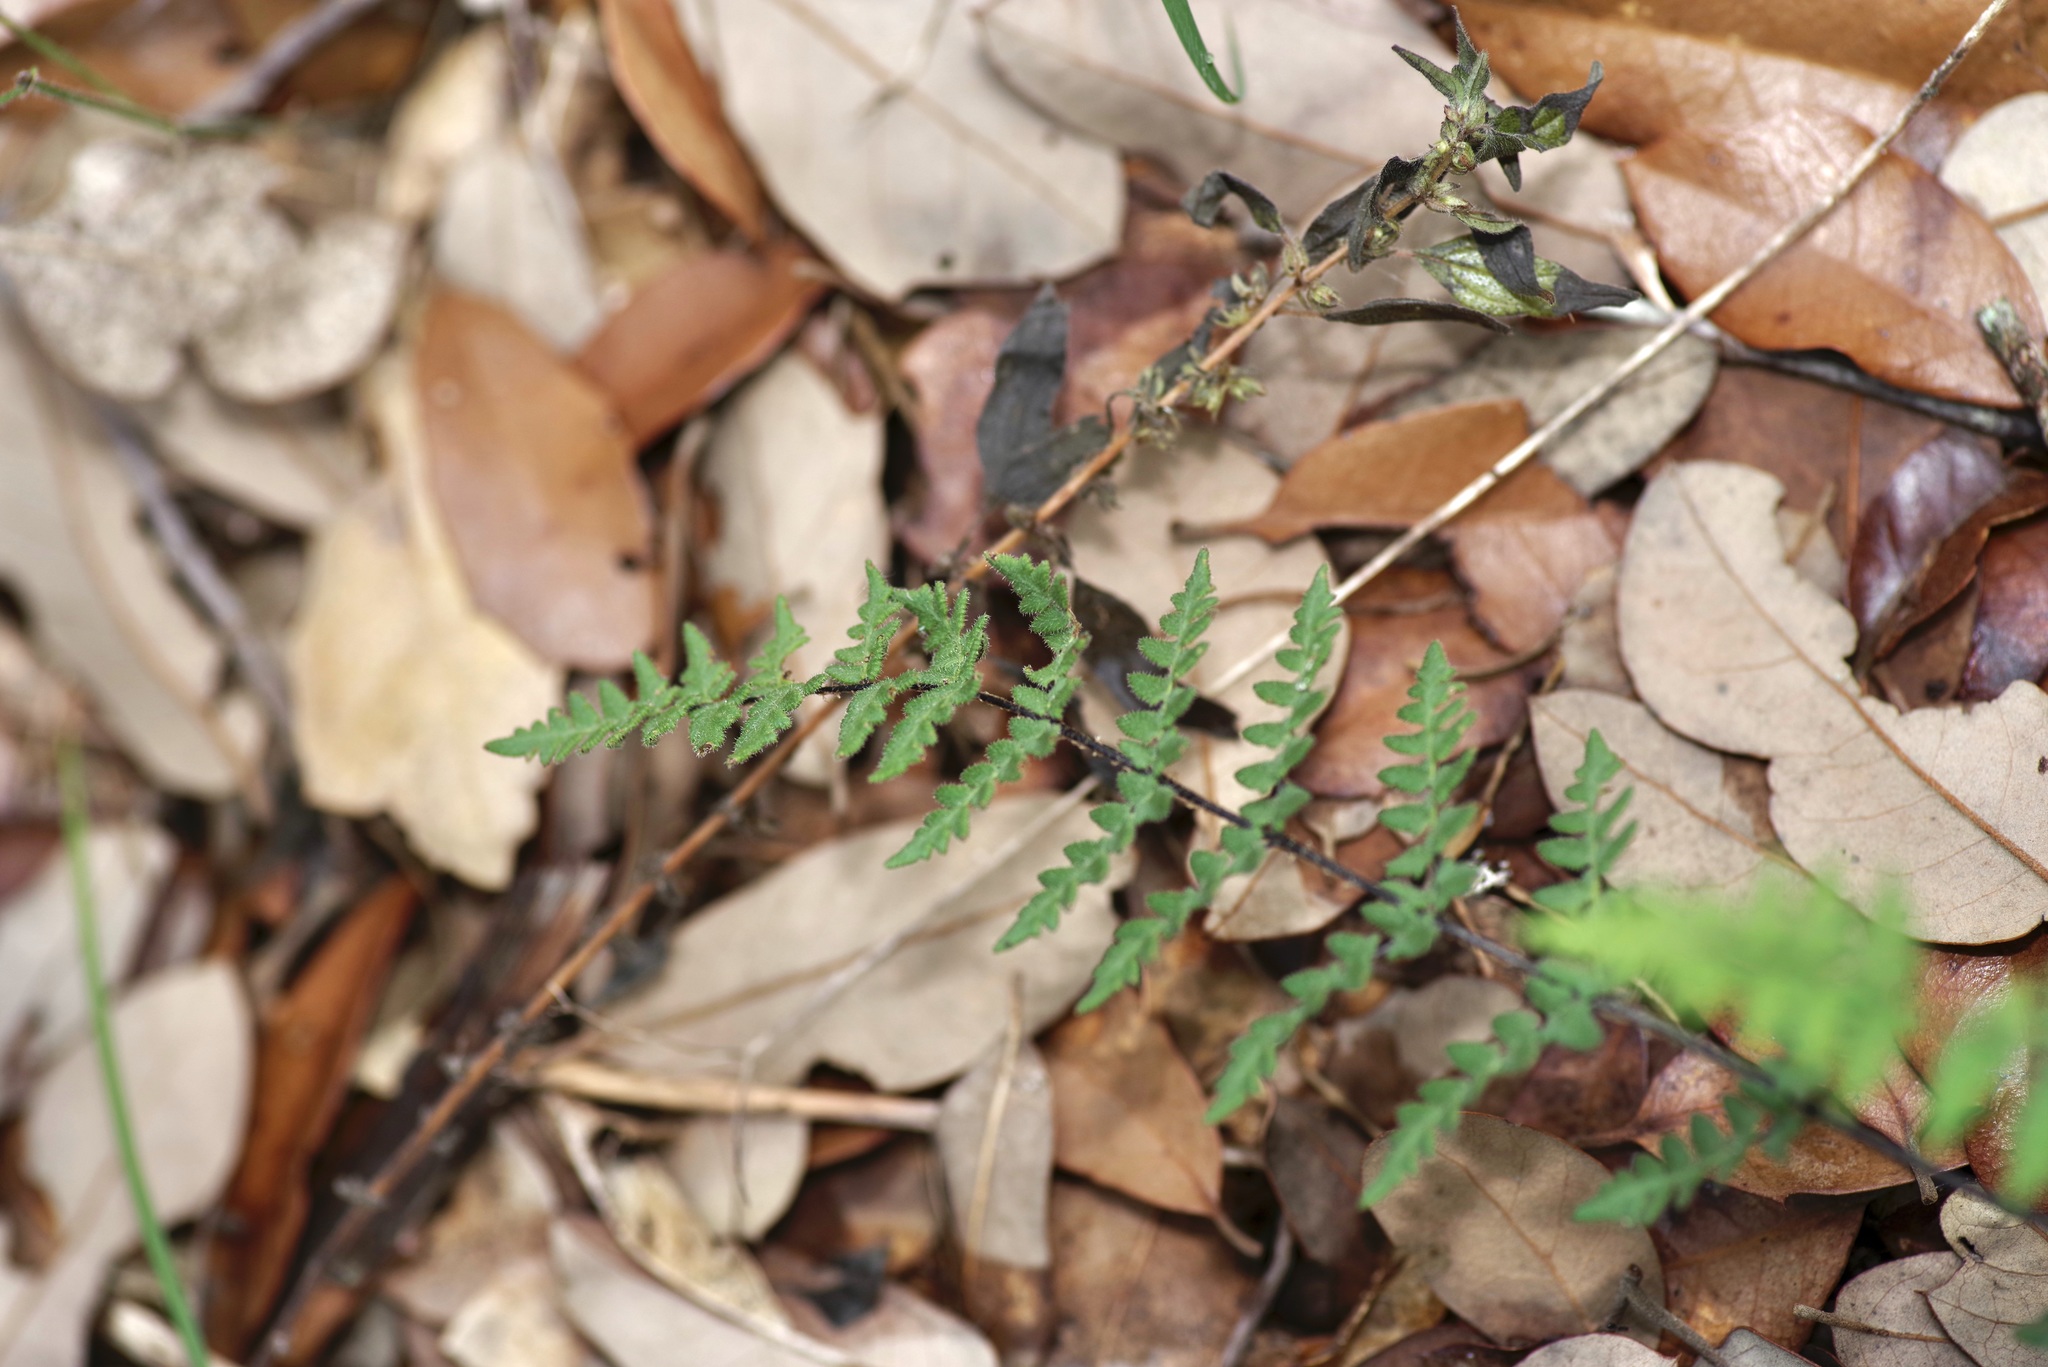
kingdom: Plantae
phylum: Tracheophyta
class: Polypodiopsida
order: Polypodiales
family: Pteridaceae
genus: Myriopteris
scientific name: Myriopteris scabra
